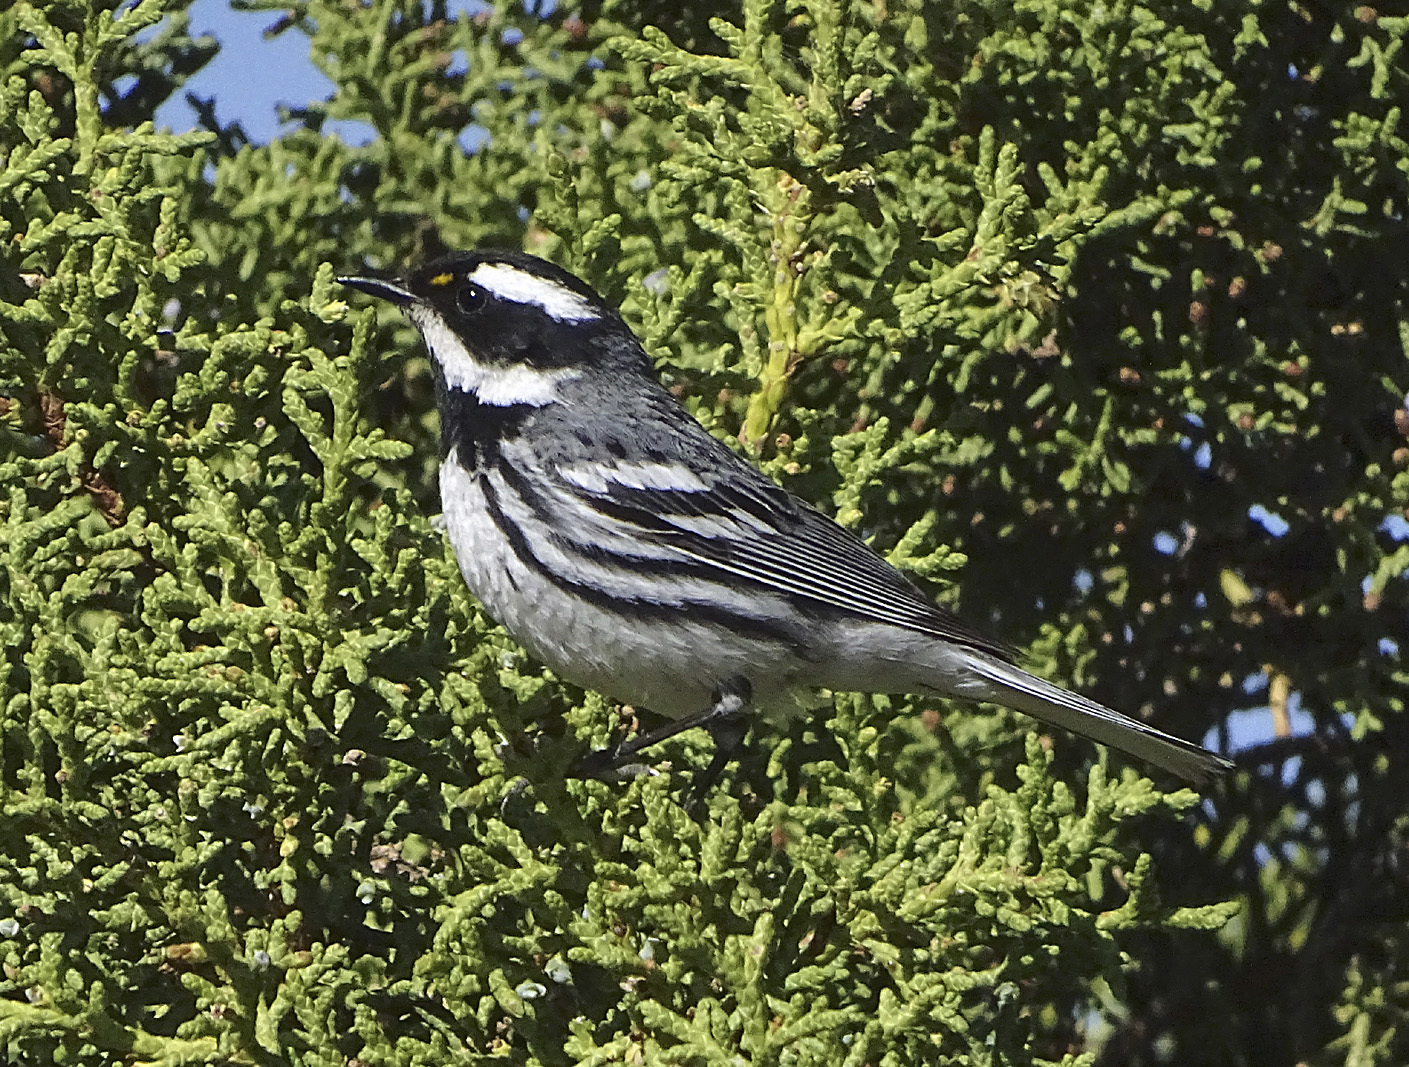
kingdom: Animalia
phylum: Chordata
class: Aves
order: Passeriformes
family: Parulidae
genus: Setophaga
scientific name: Setophaga nigrescens
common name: Black-throated gray warbler
